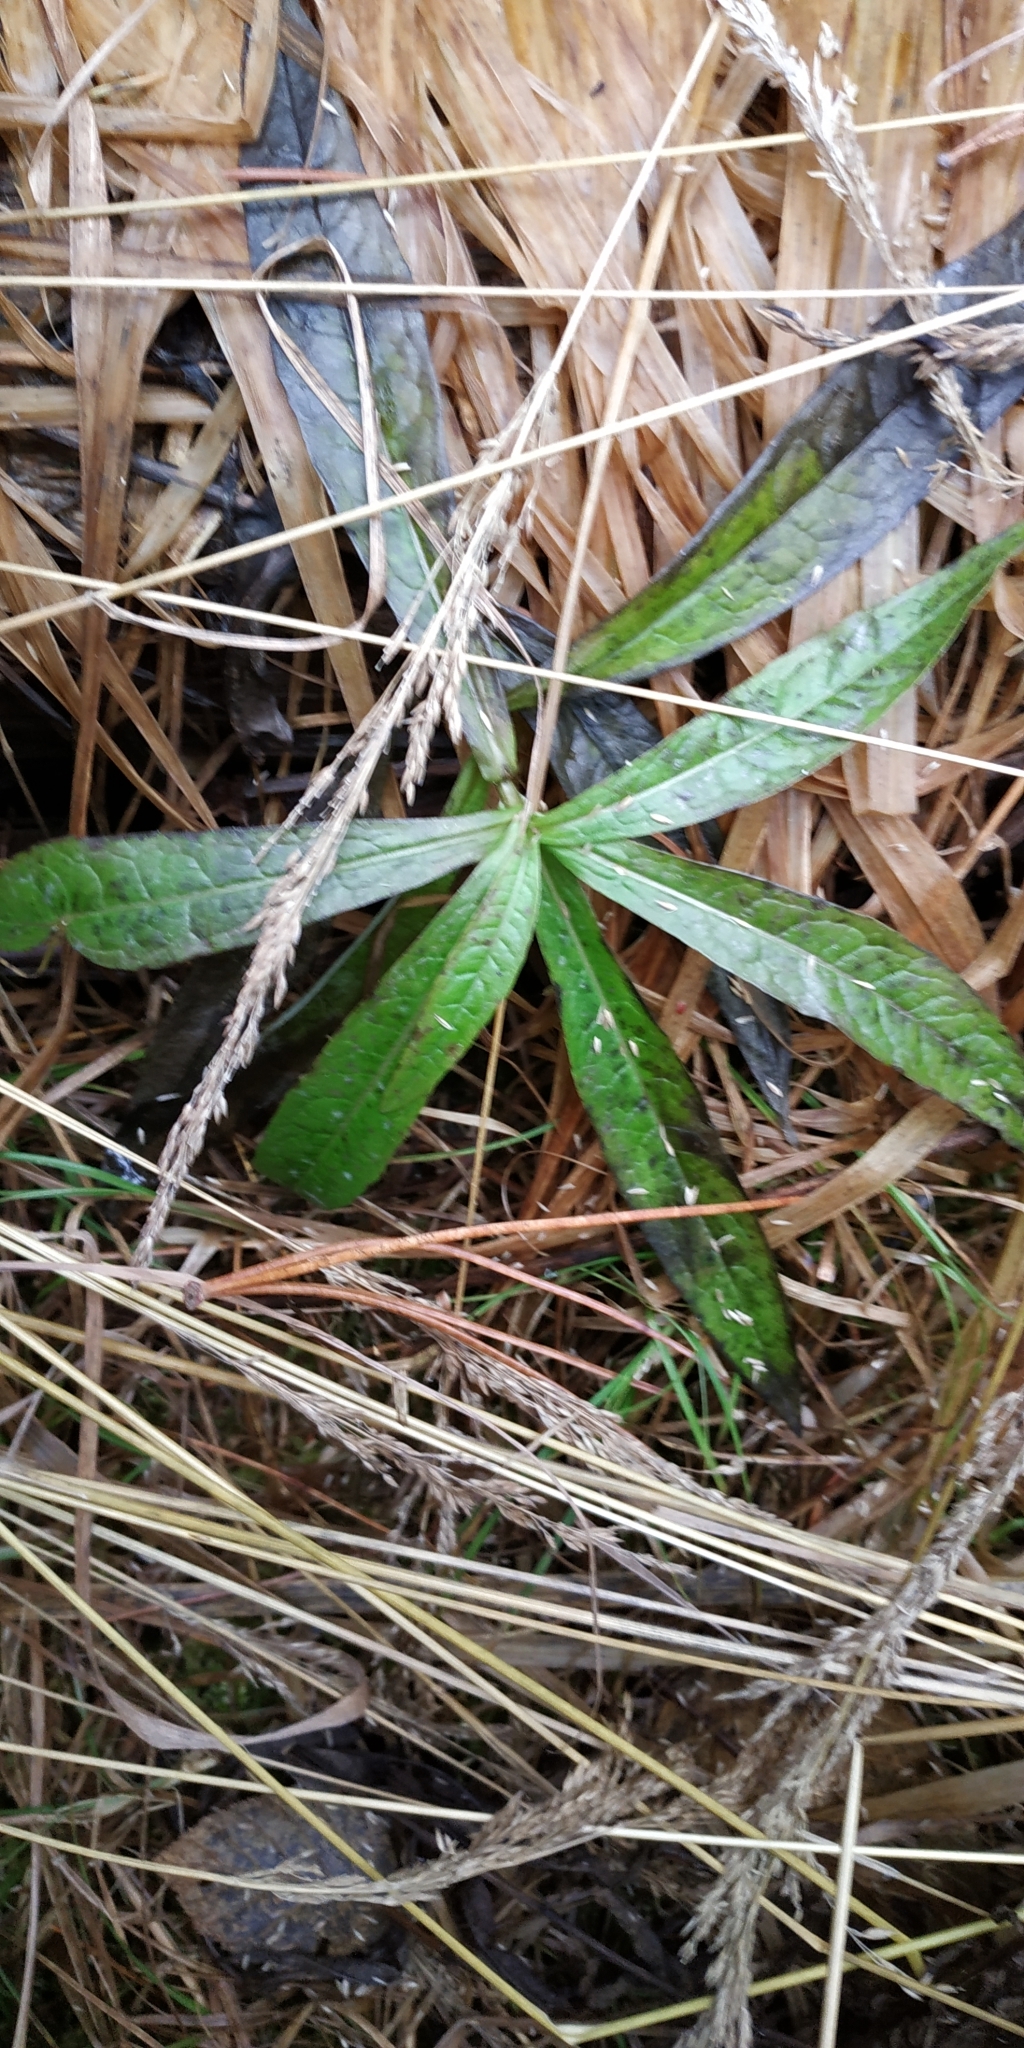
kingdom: Plantae
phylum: Tracheophyta
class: Magnoliopsida
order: Myrtales
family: Onagraceae
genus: Chamaenerion
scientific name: Chamaenerion angustifolium
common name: Fireweed
